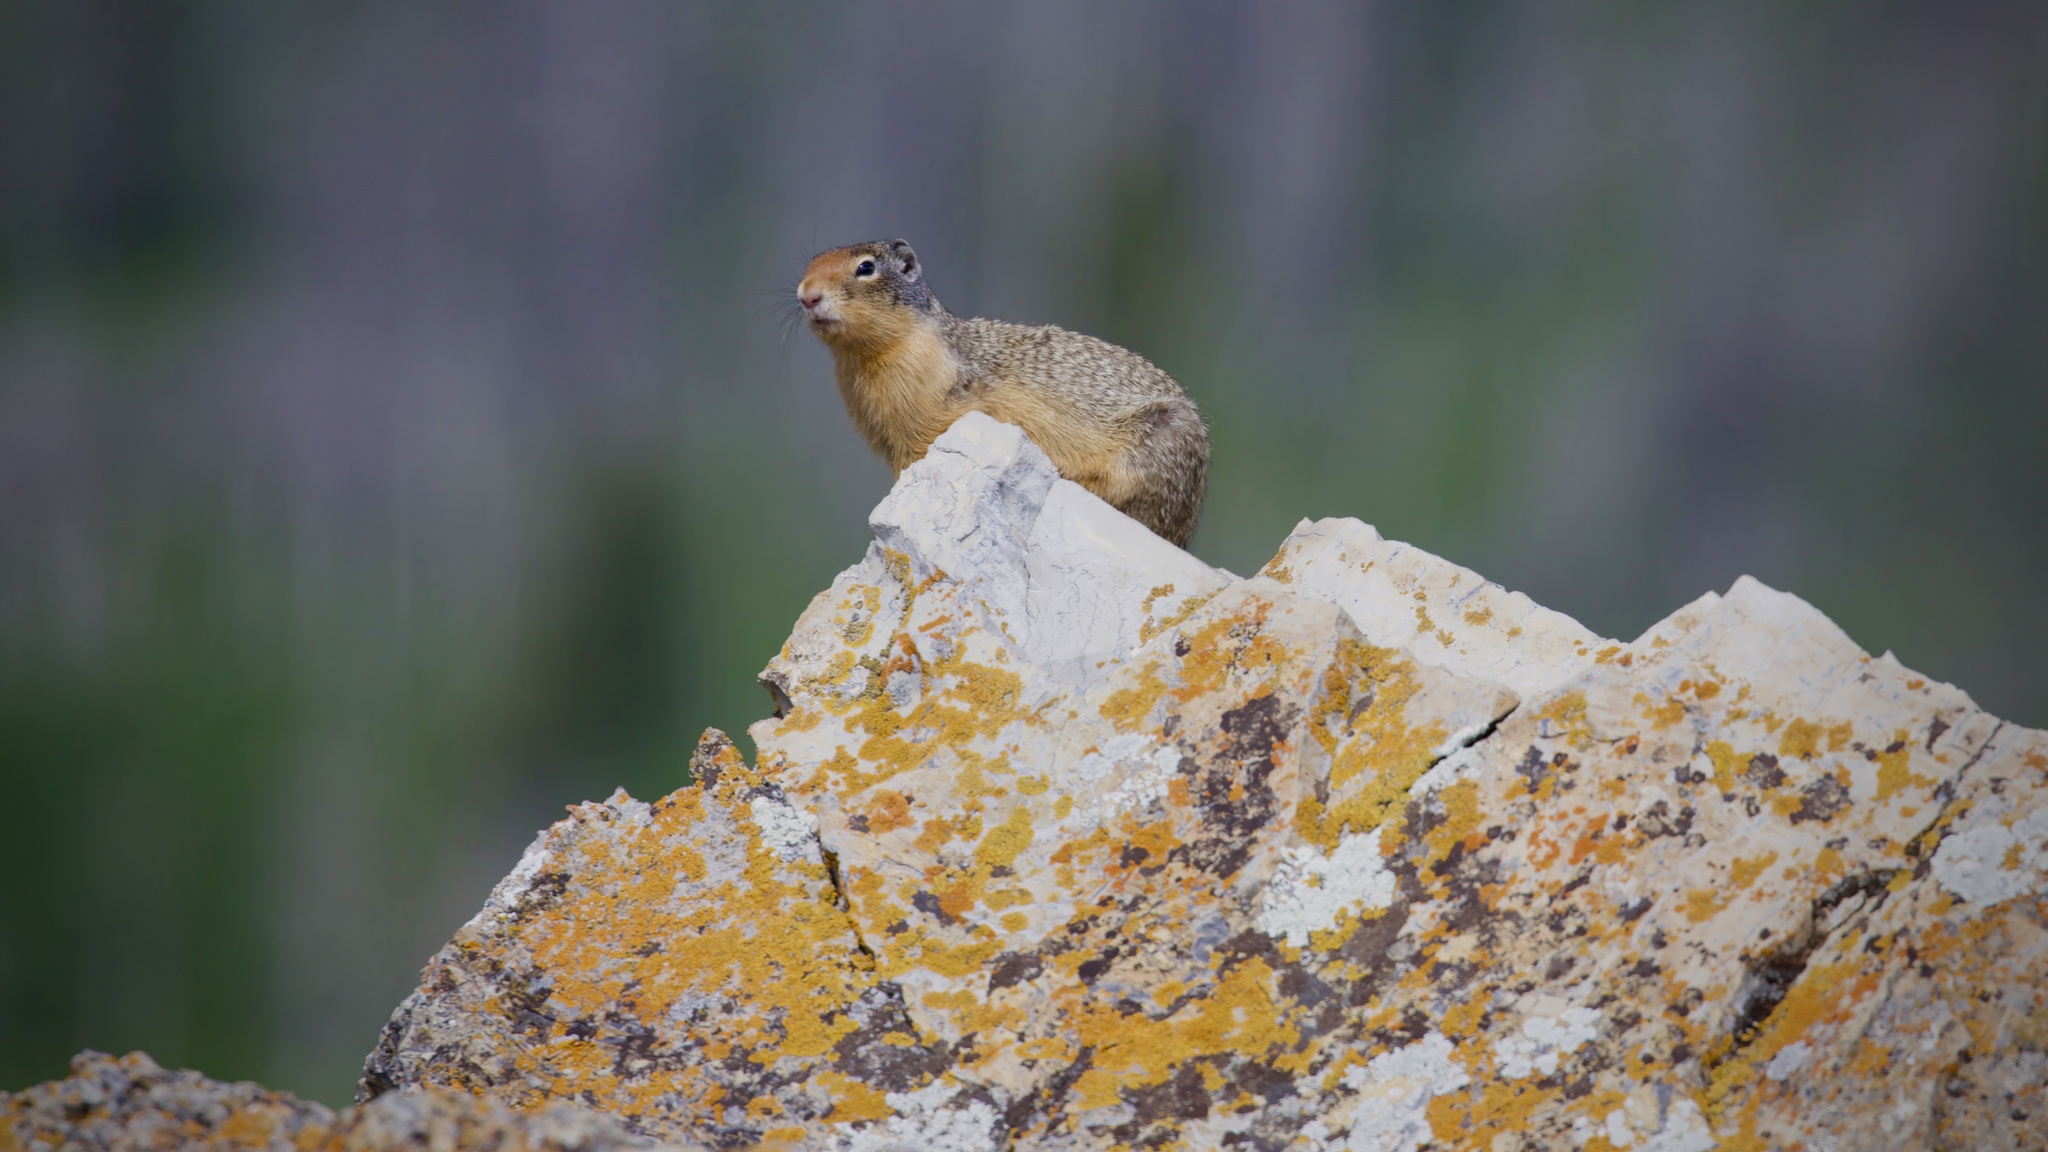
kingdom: Animalia
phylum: Chordata
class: Mammalia
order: Rodentia
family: Sciuridae
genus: Urocitellus
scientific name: Urocitellus columbianus
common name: Columbian ground squirrel
